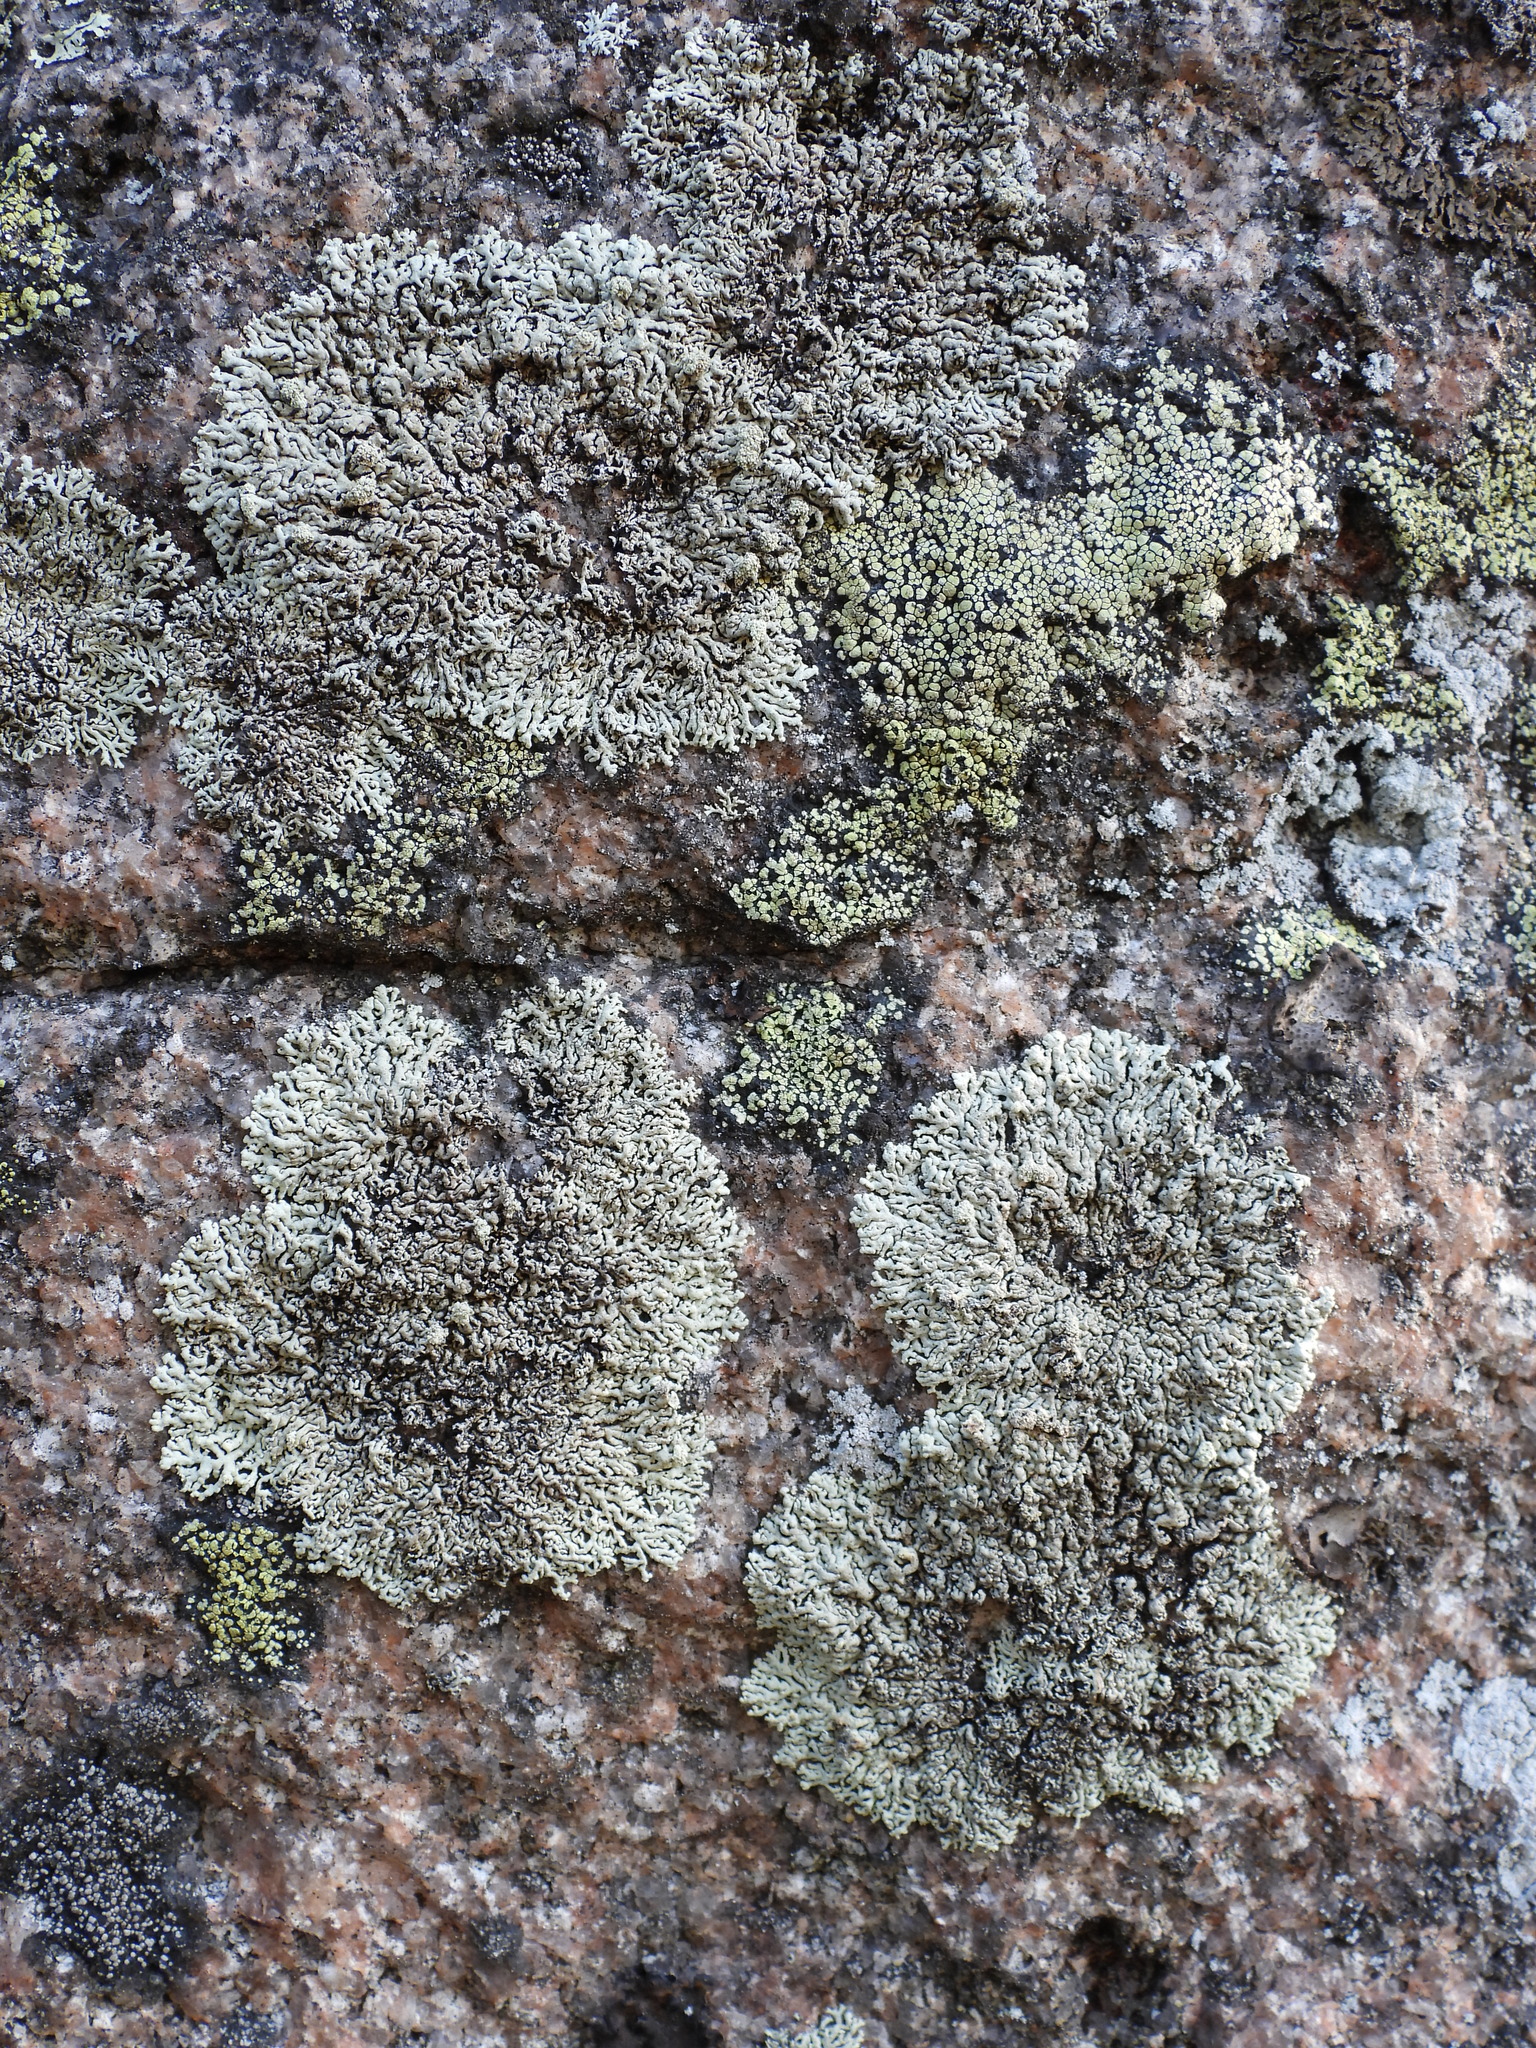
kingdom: Fungi
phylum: Ascomycota
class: Lecanoromycetes
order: Lecanorales
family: Parmeliaceae
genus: Arctoparmelia
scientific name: Arctoparmelia incurva
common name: Bent ring lichen
